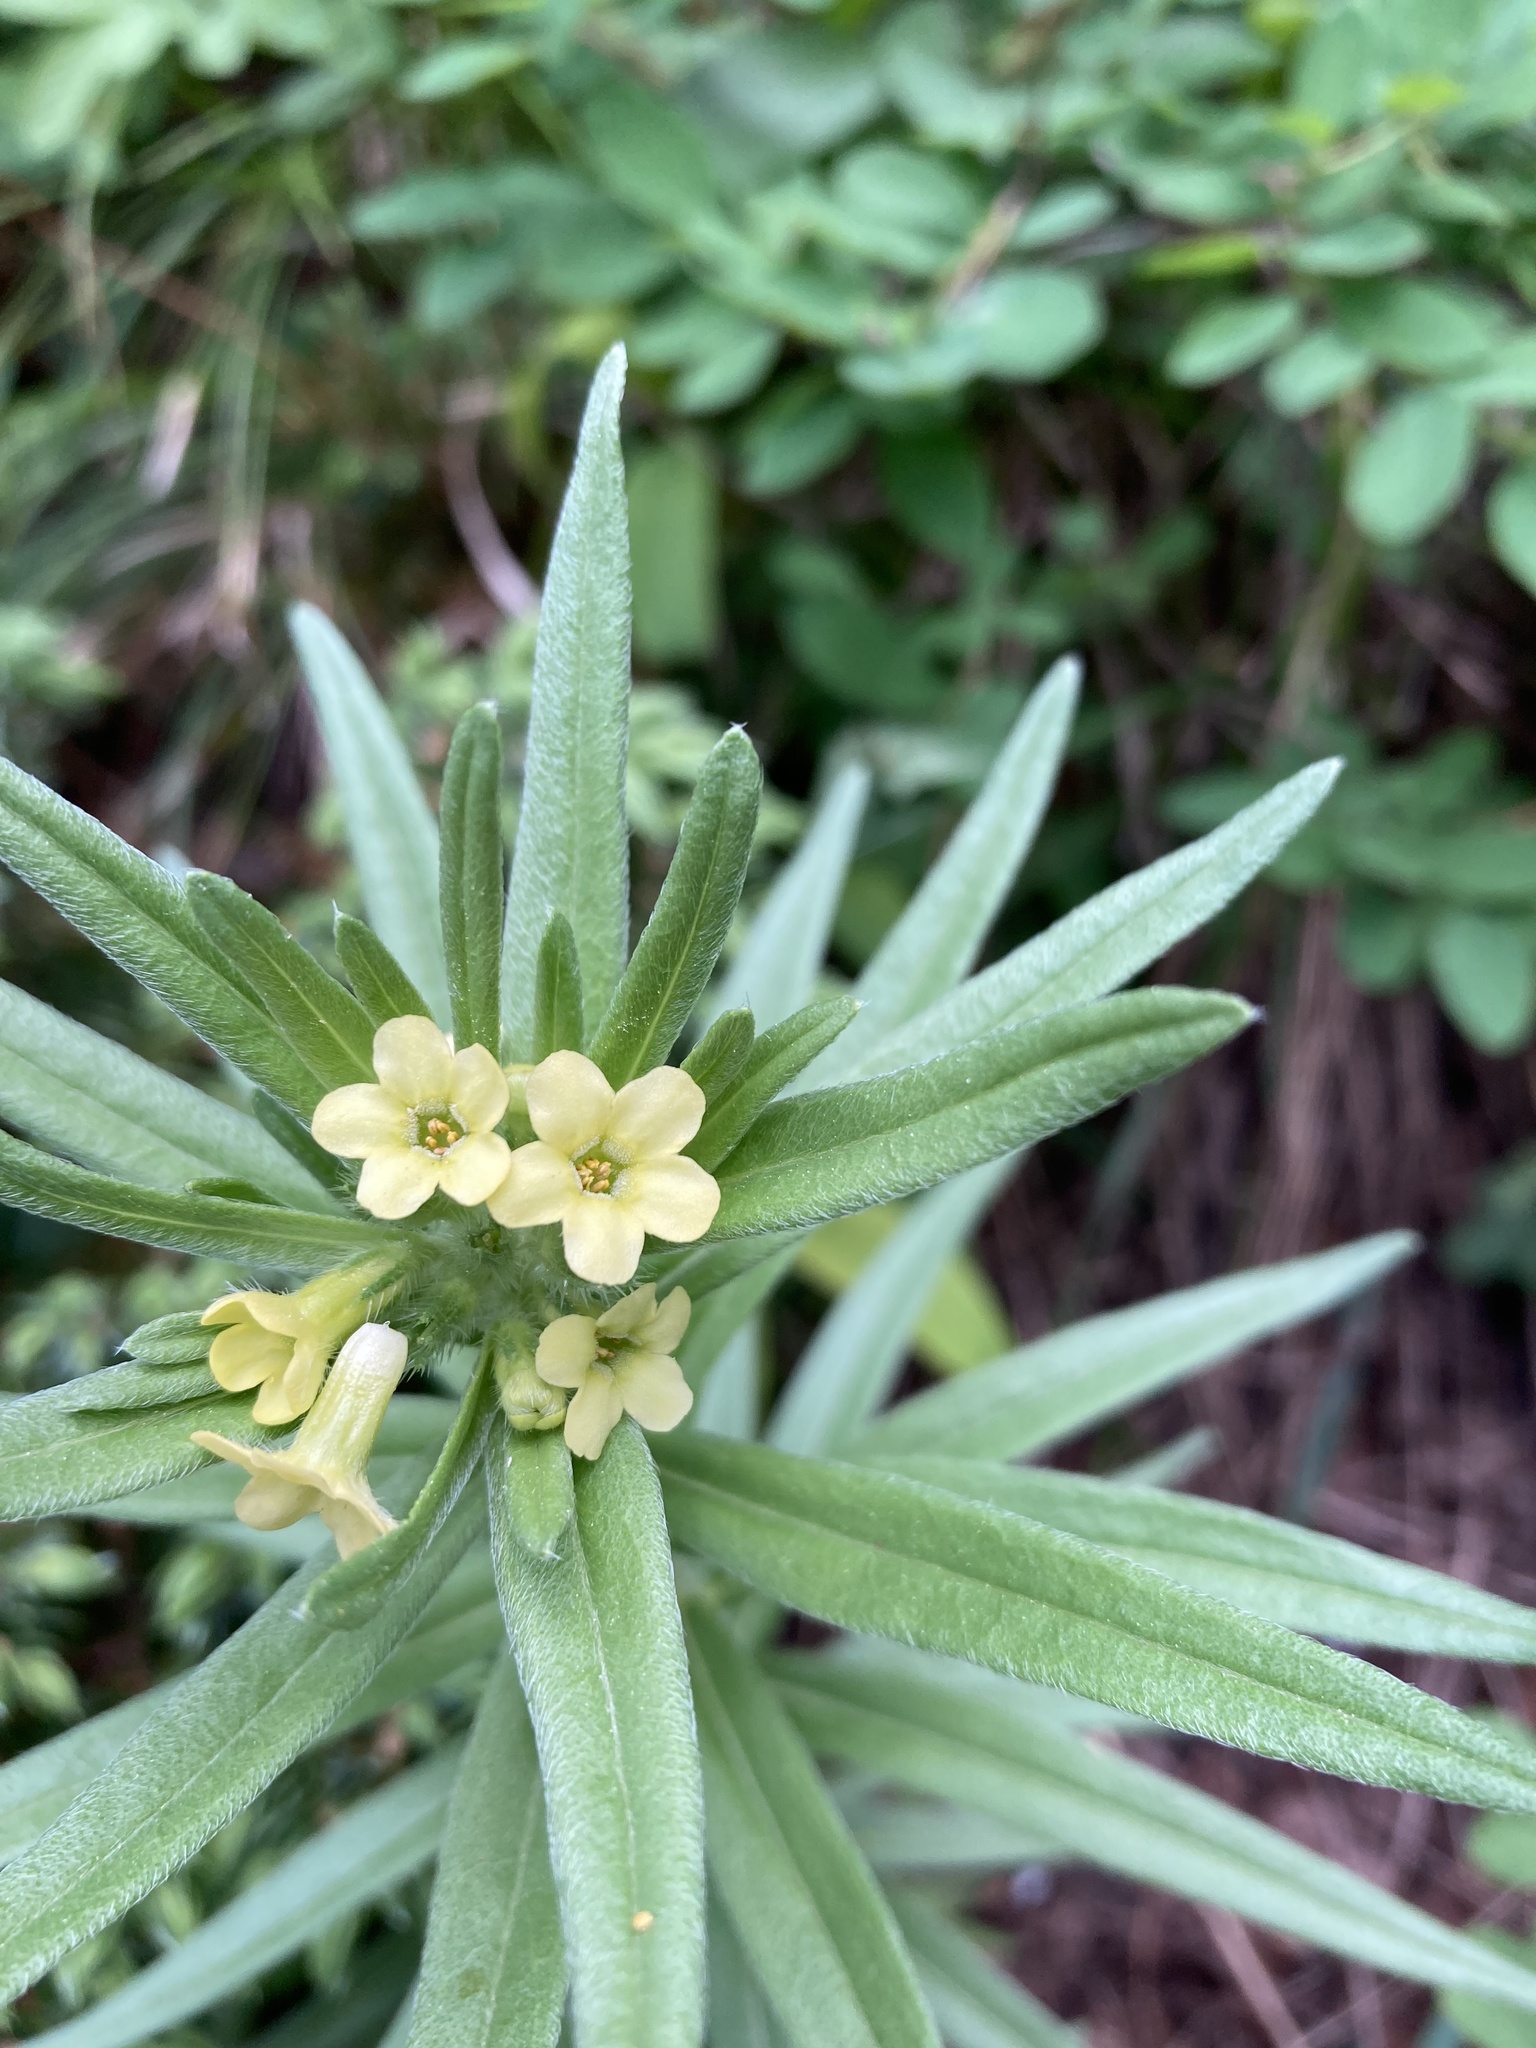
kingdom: Plantae
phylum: Tracheophyta
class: Magnoliopsida
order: Boraginales
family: Boraginaceae
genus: Lithospermum
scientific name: Lithospermum ruderale
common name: Western gromwell
